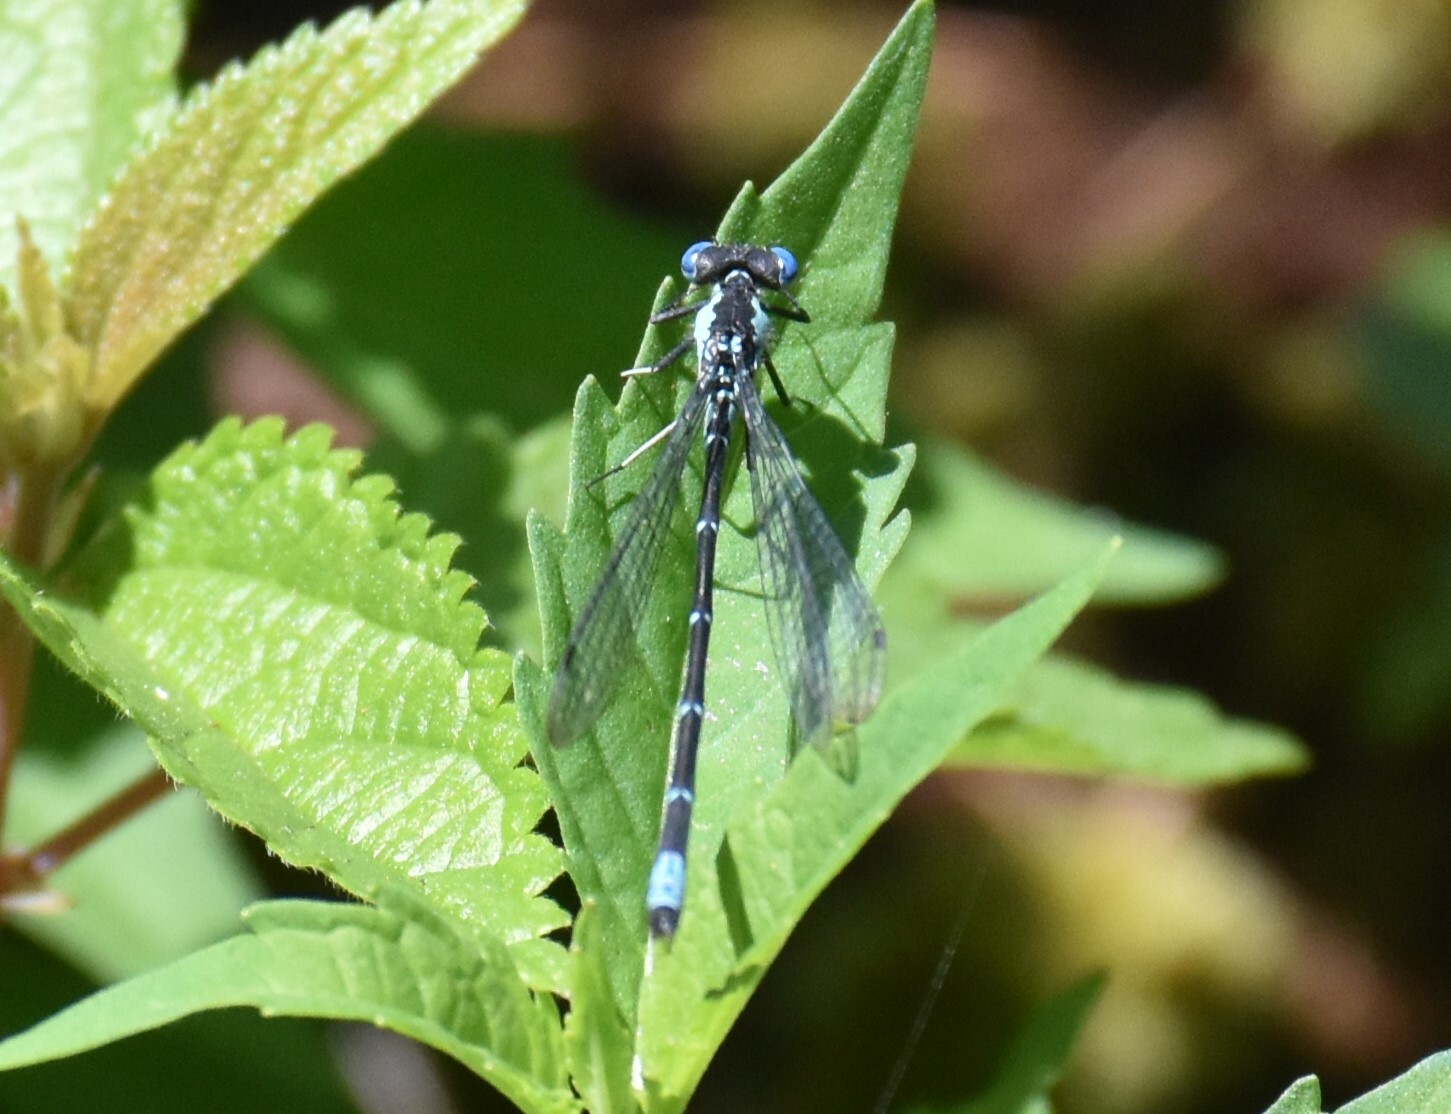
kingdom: Animalia
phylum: Arthropoda
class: Insecta
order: Odonata
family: Coenagrionidae
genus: Chromagrion
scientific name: Chromagrion conditum
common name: Aurora damsel
